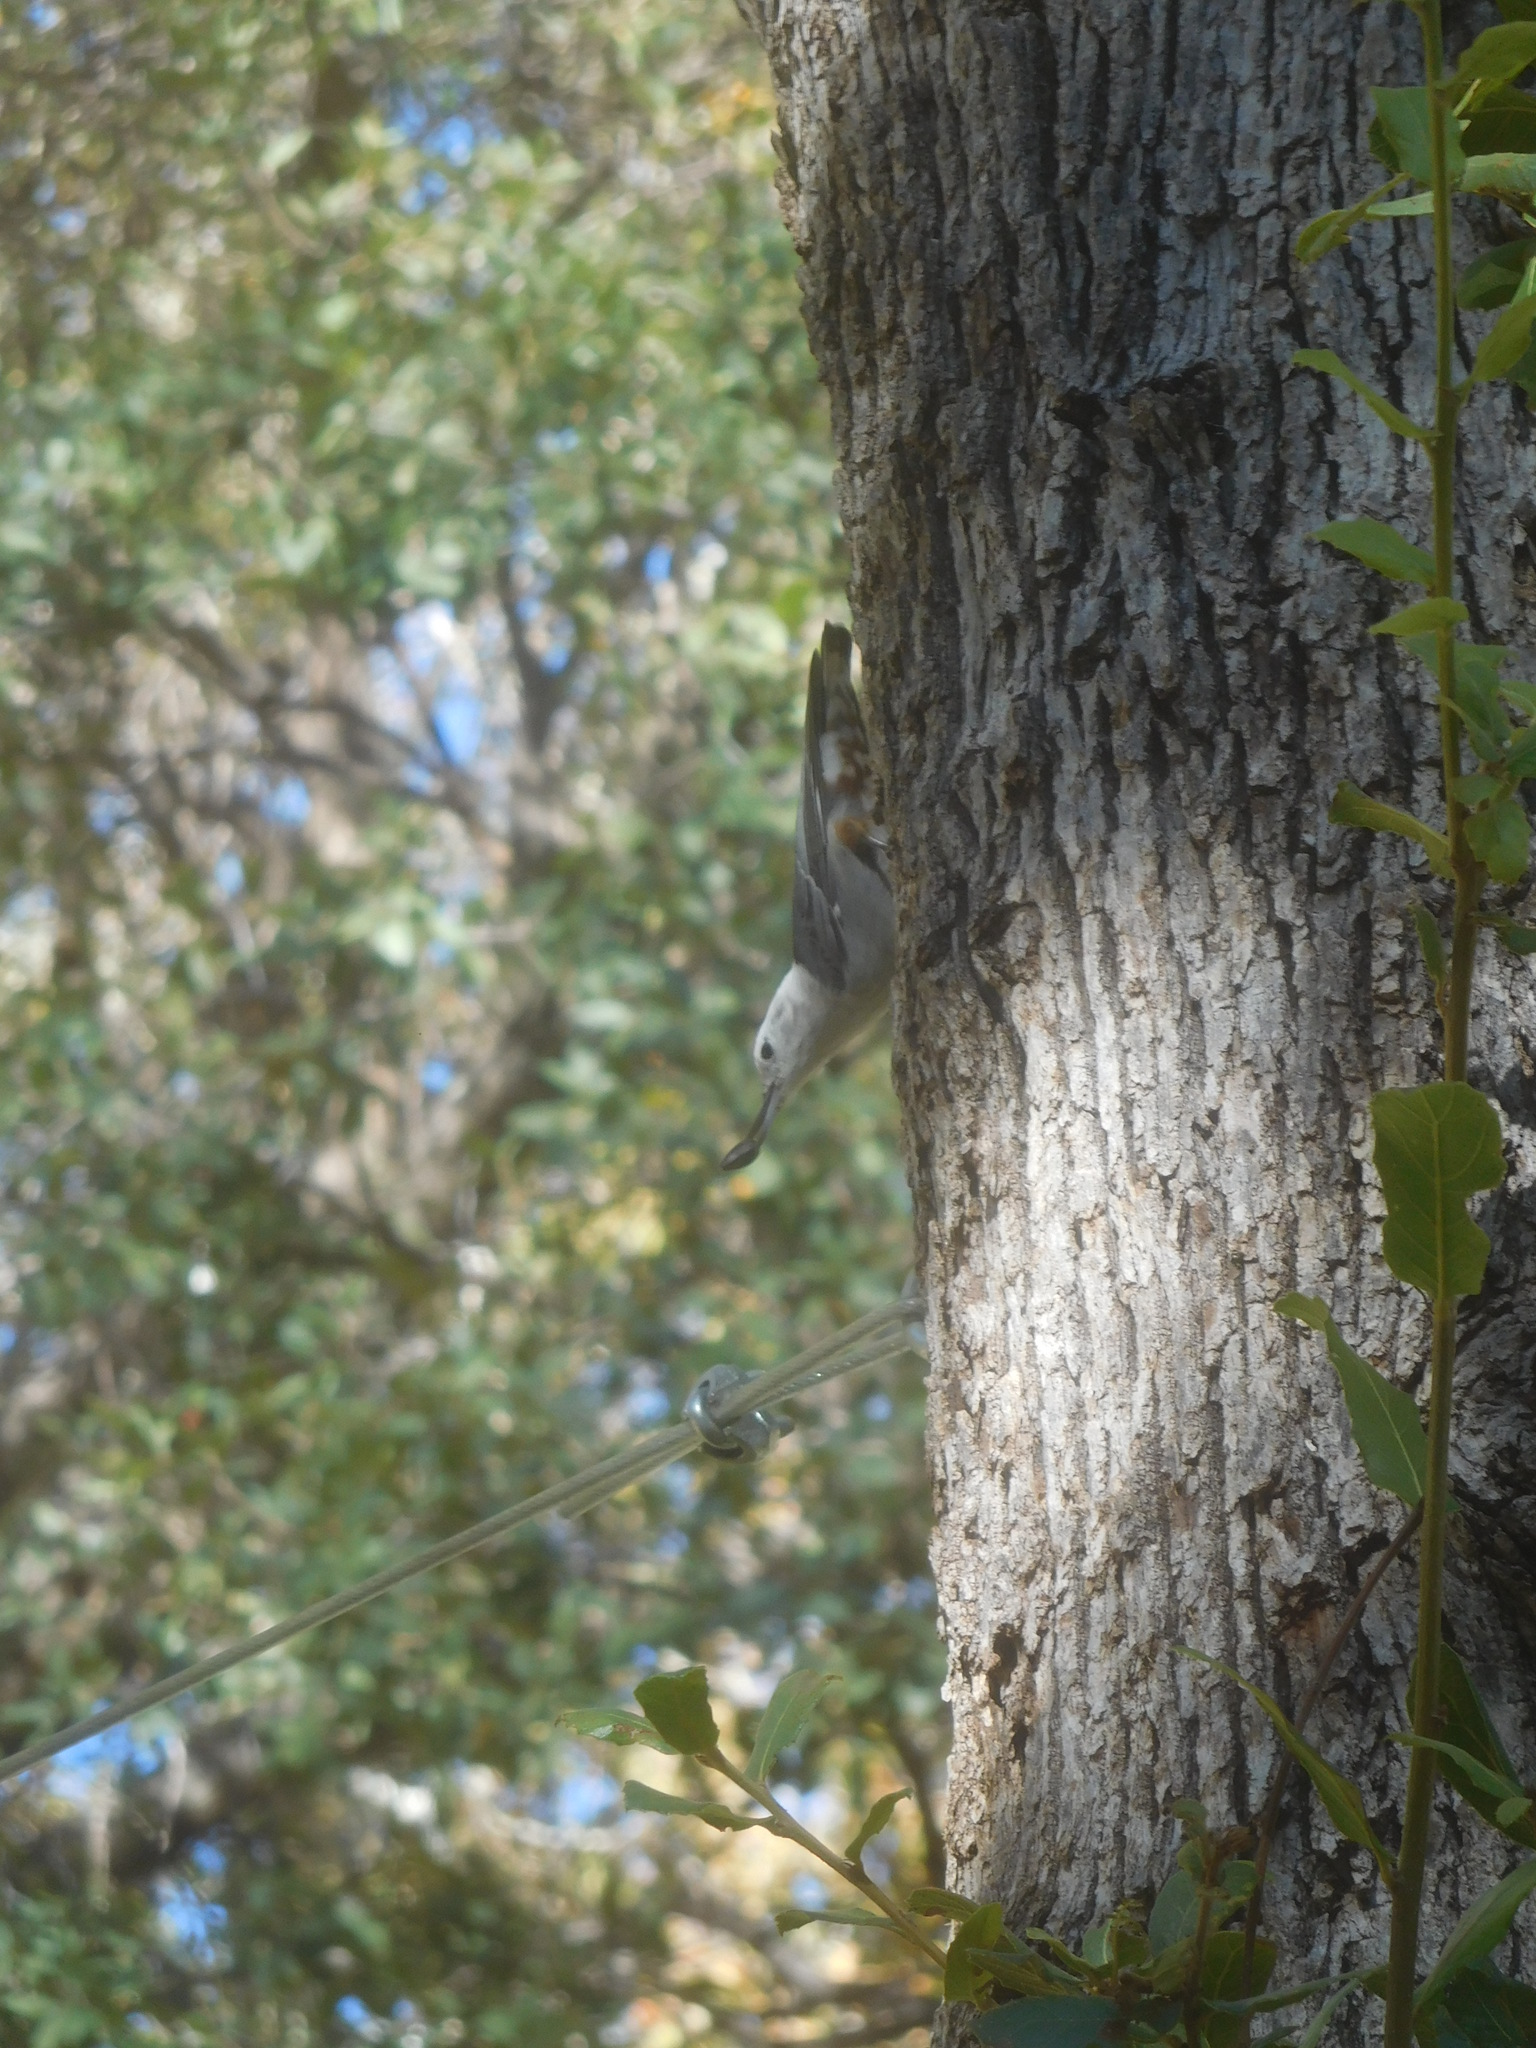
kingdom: Animalia
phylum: Chordata
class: Aves
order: Passeriformes
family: Sittidae
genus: Sitta
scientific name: Sitta carolinensis
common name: White-breasted nuthatch
